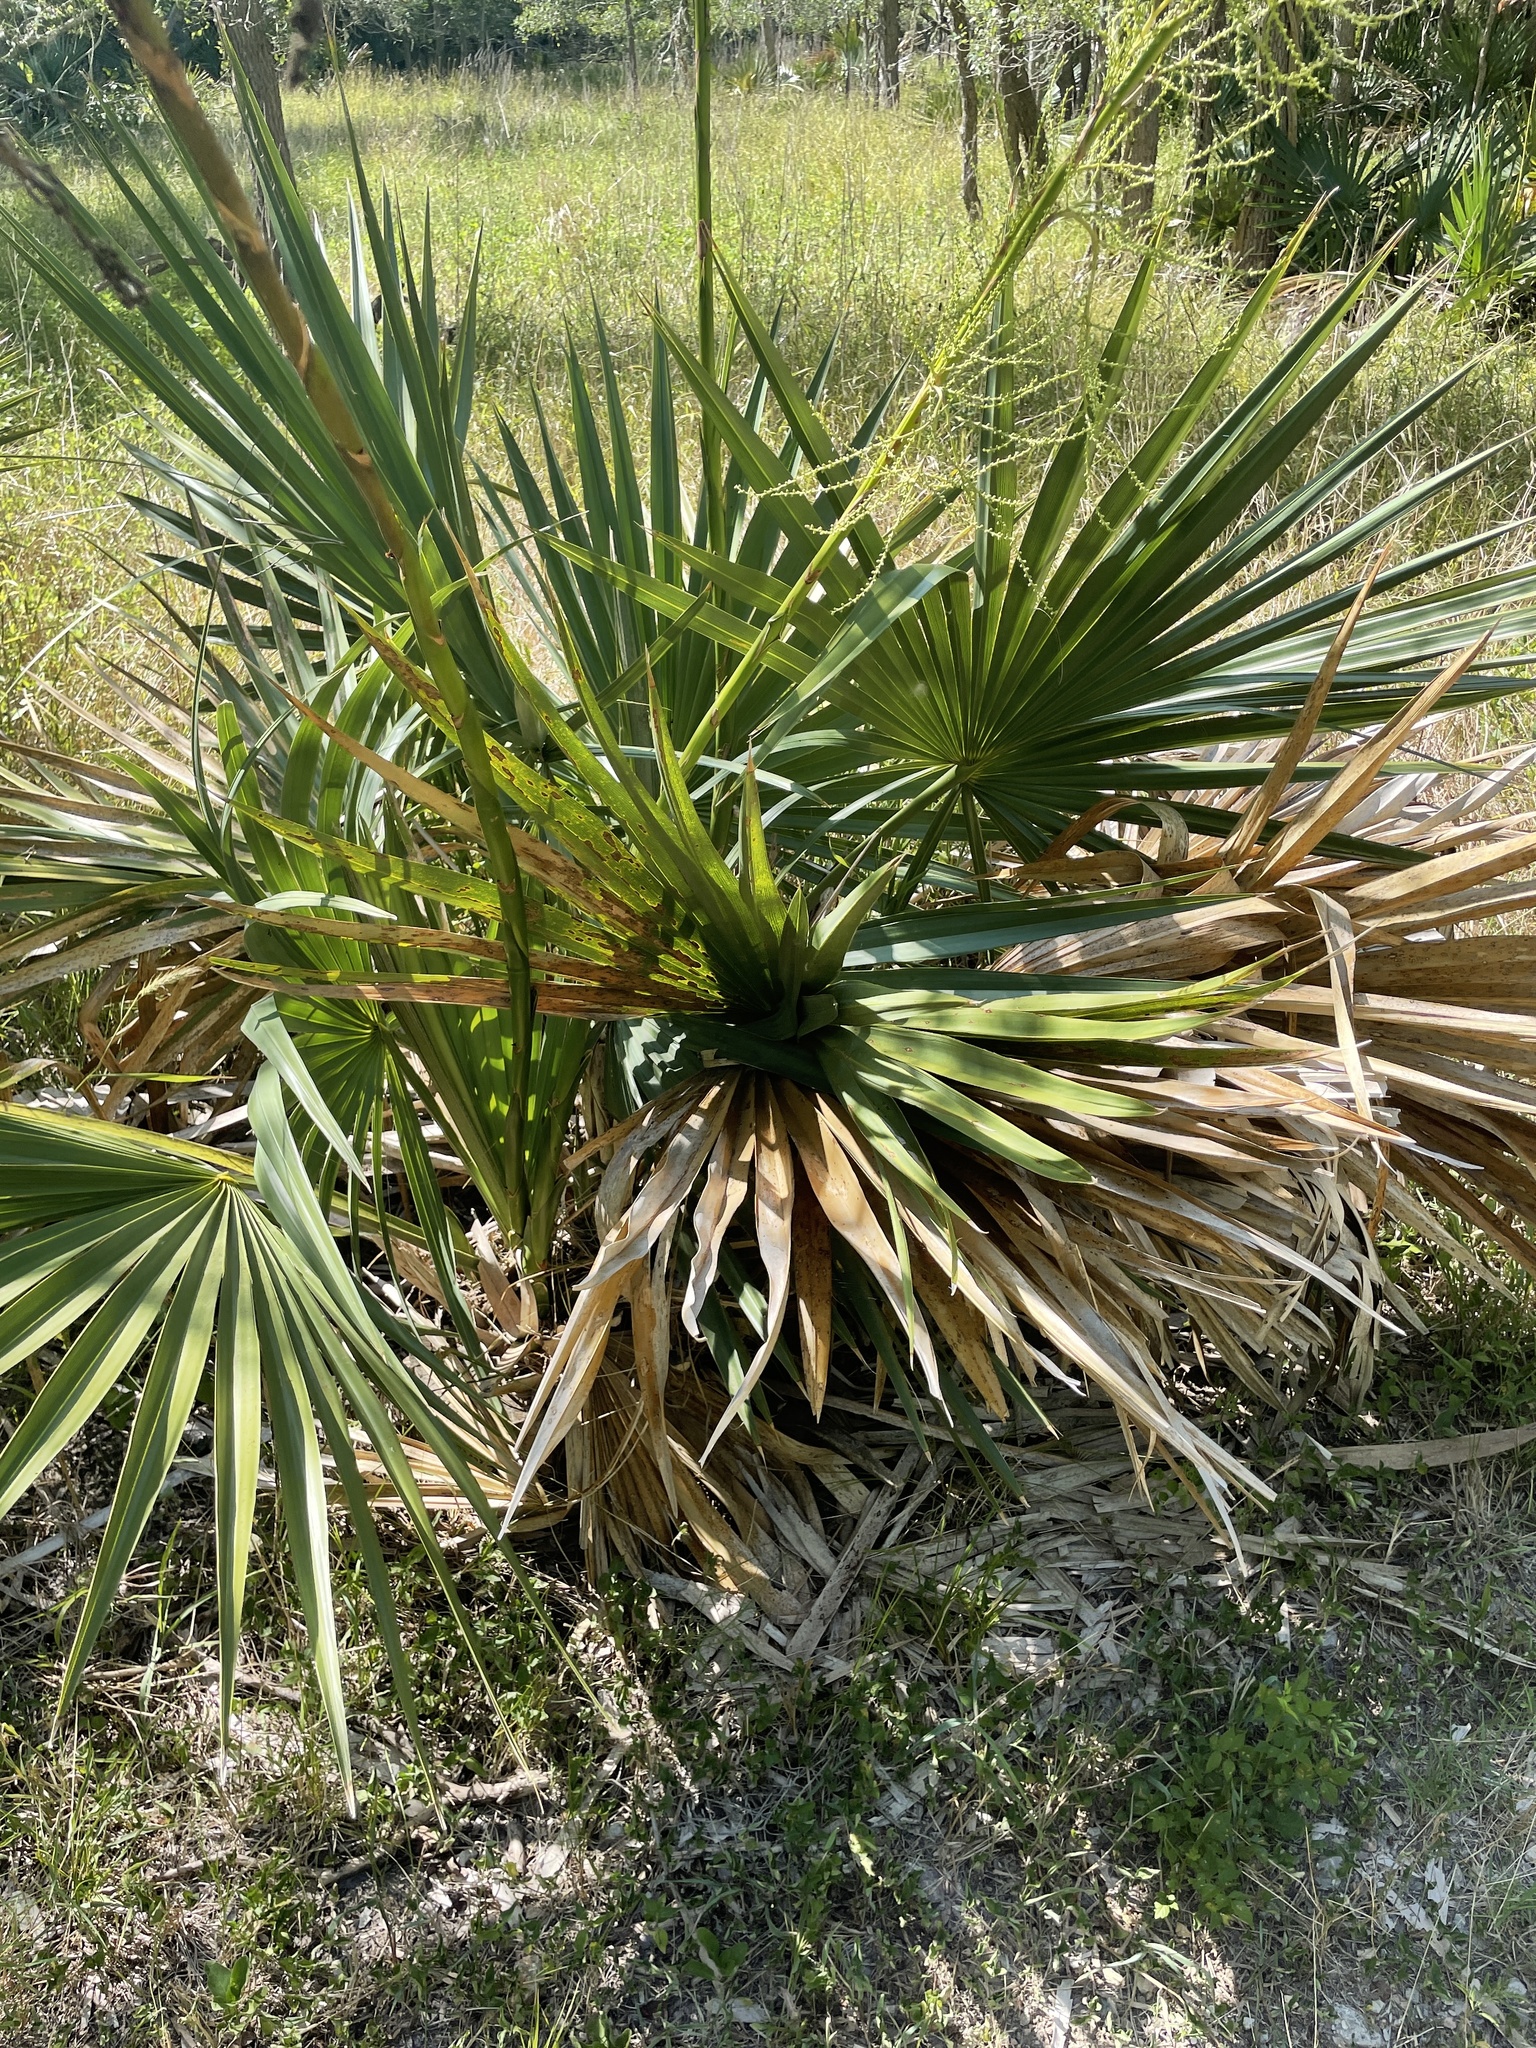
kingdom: Plantae
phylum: Tracheophyta
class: Liliopsida
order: Arecales
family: Arecaceae
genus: Sabal
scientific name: Sabal minor
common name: Dwarf palmetto
